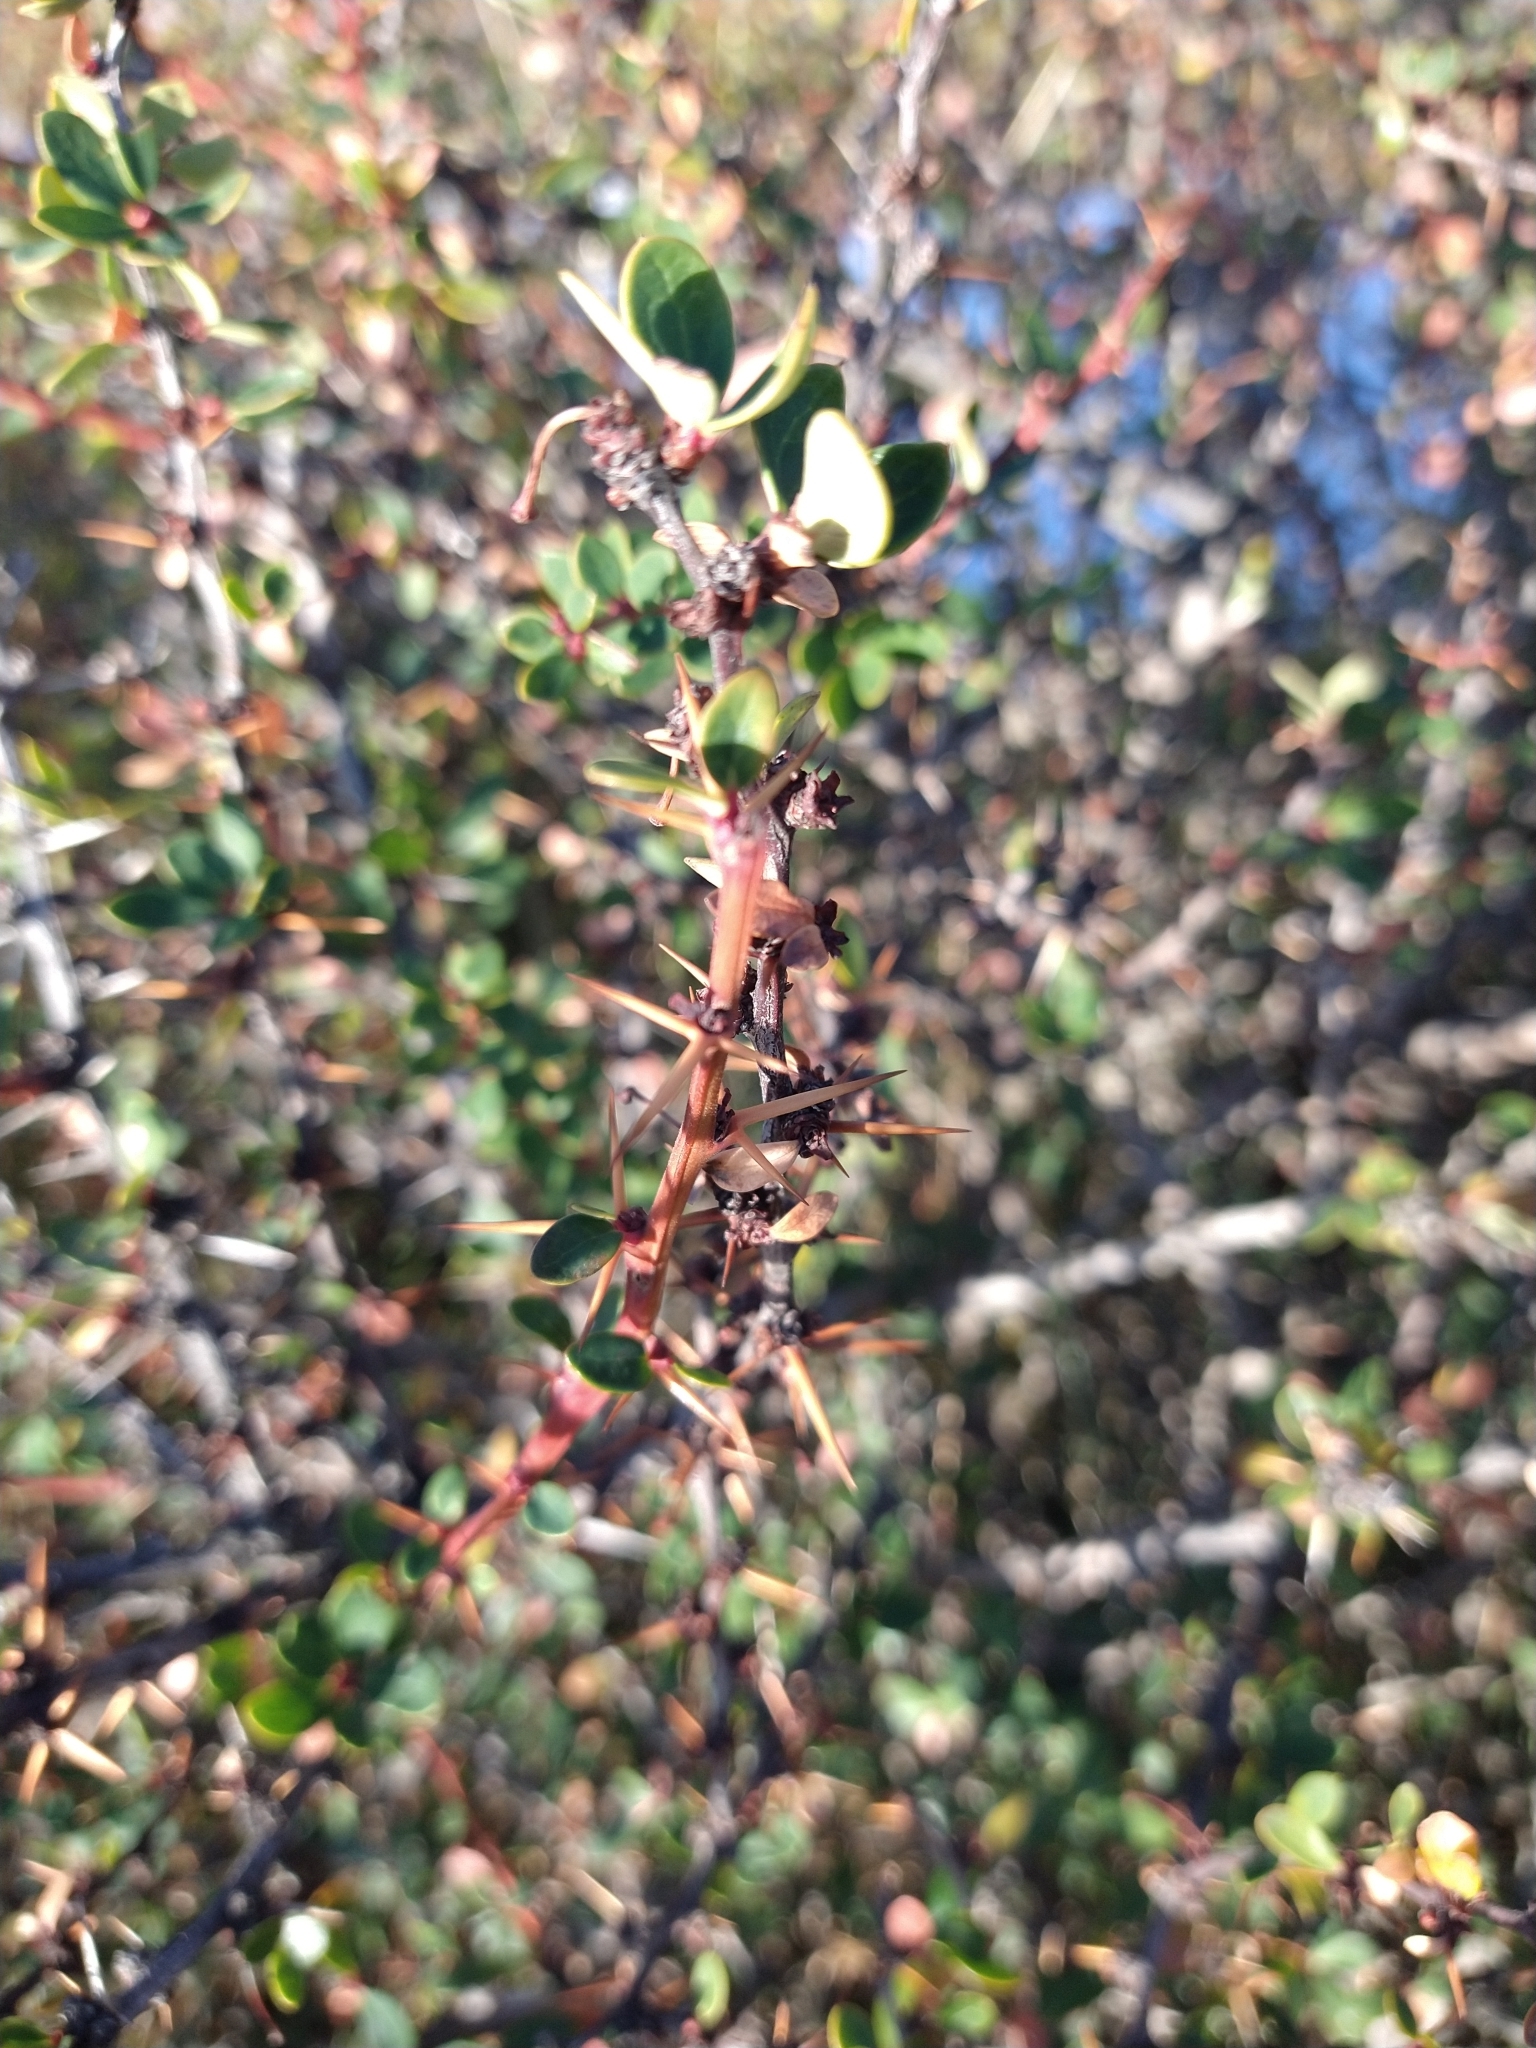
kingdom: Plantae
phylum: Tracheophyta
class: Magnoliopsida
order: Ranunculales
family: Berberidaceae
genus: Berberis
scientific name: Berberis microphylla
